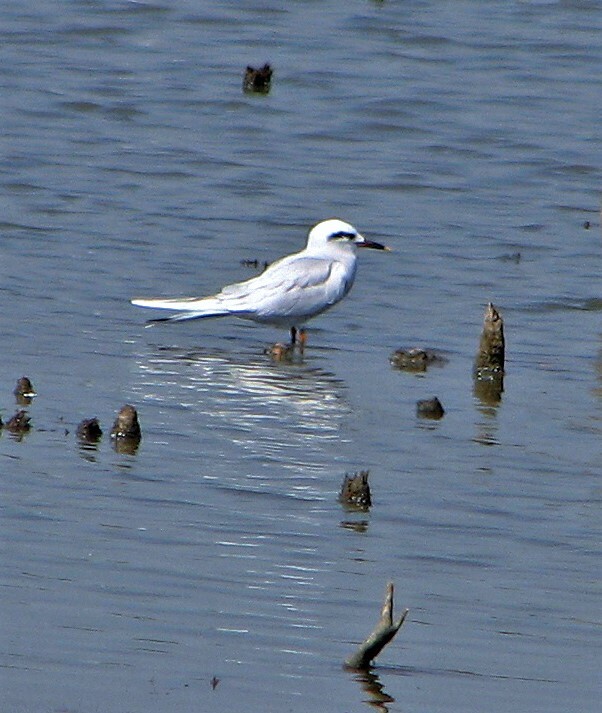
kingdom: Animalia
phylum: Chordata
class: Aves
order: Charadriiformes
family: Laridae
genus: Sterna
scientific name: Sterna trudeaui
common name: Snowy-crowned tern
